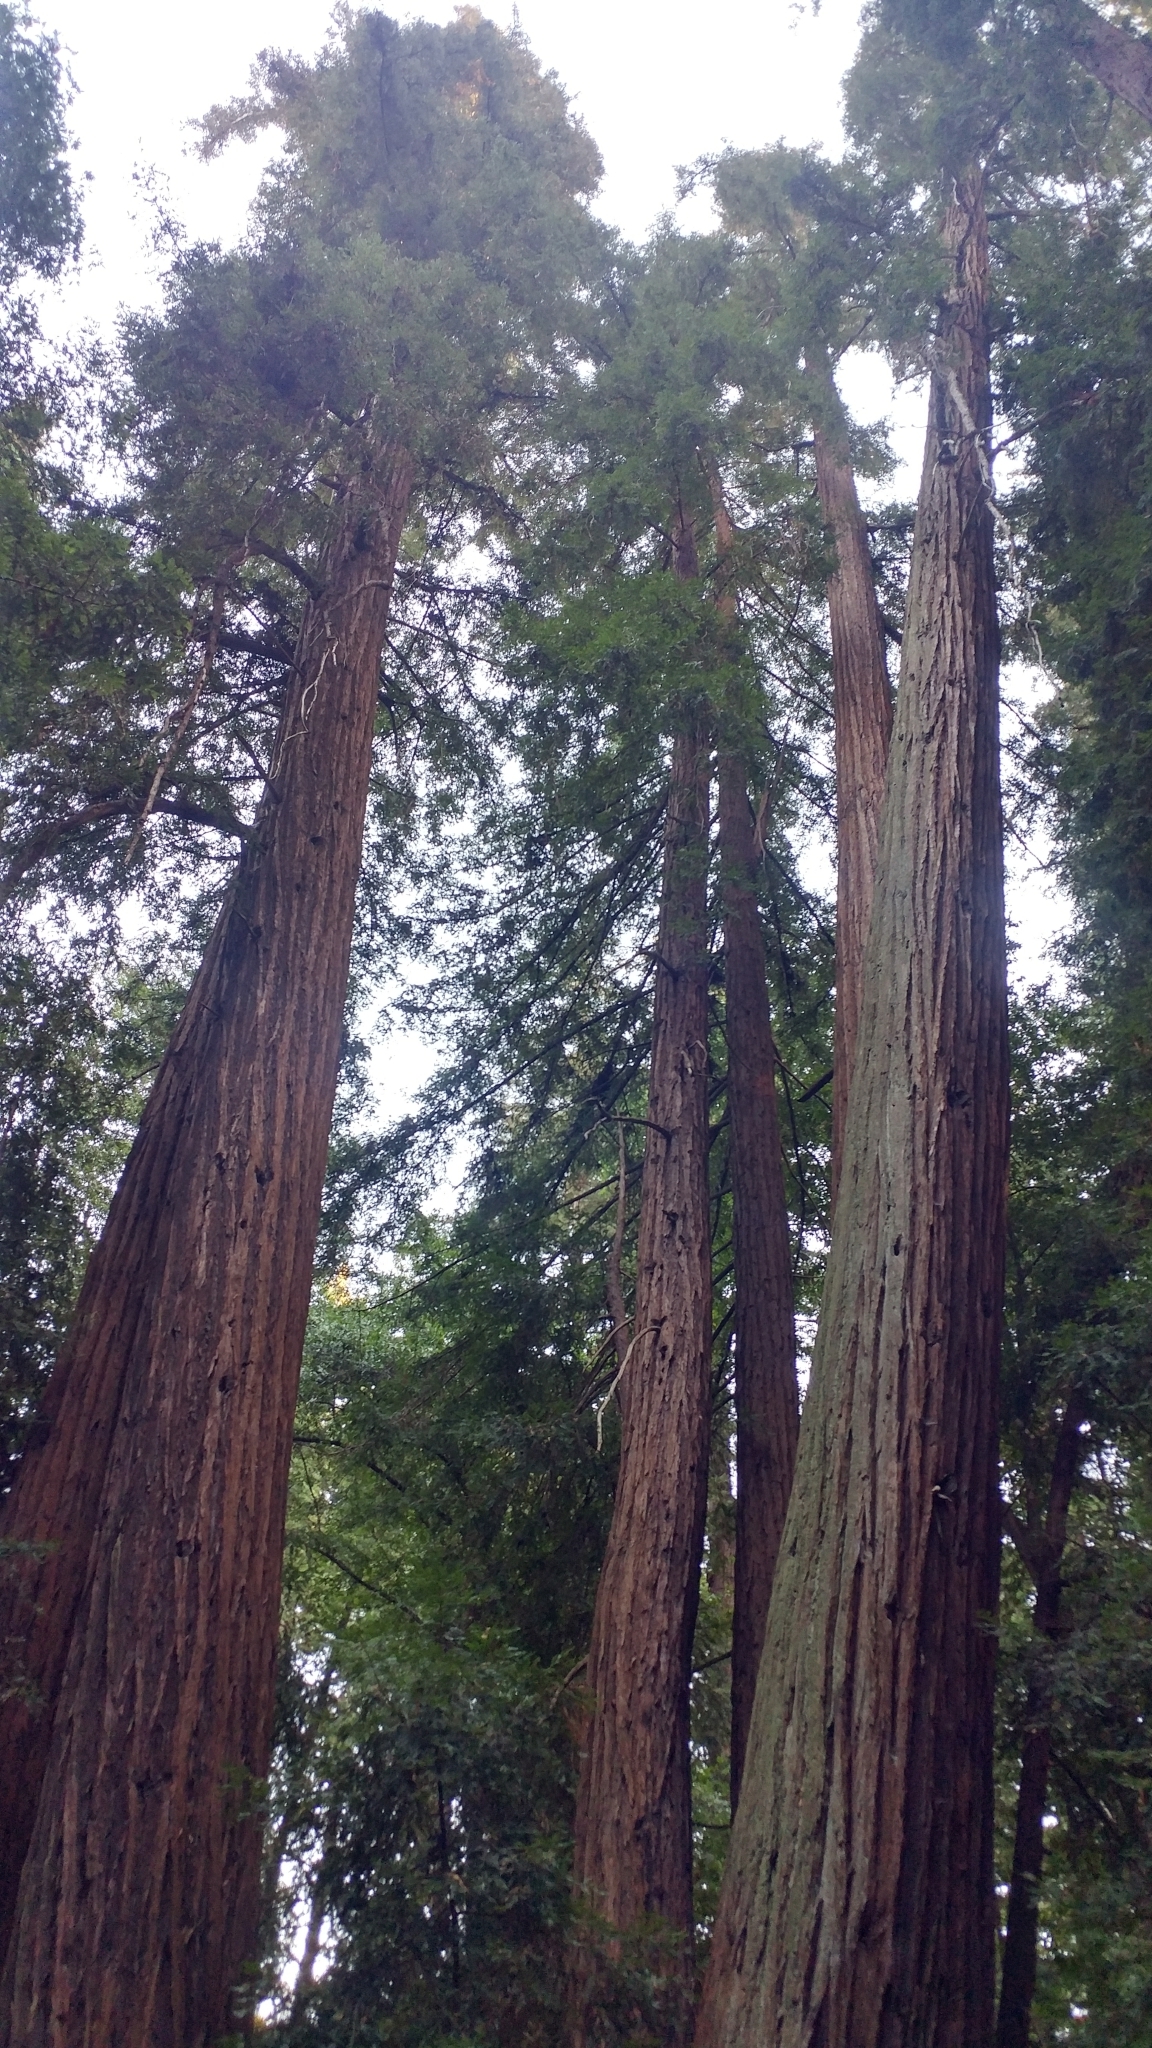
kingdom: Plantae
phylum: Tracheophyta
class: Pinopsida
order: Pinales
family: Cupressaceae
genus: Sequoia
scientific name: Sequoia sempervirens
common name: Coast redwood
